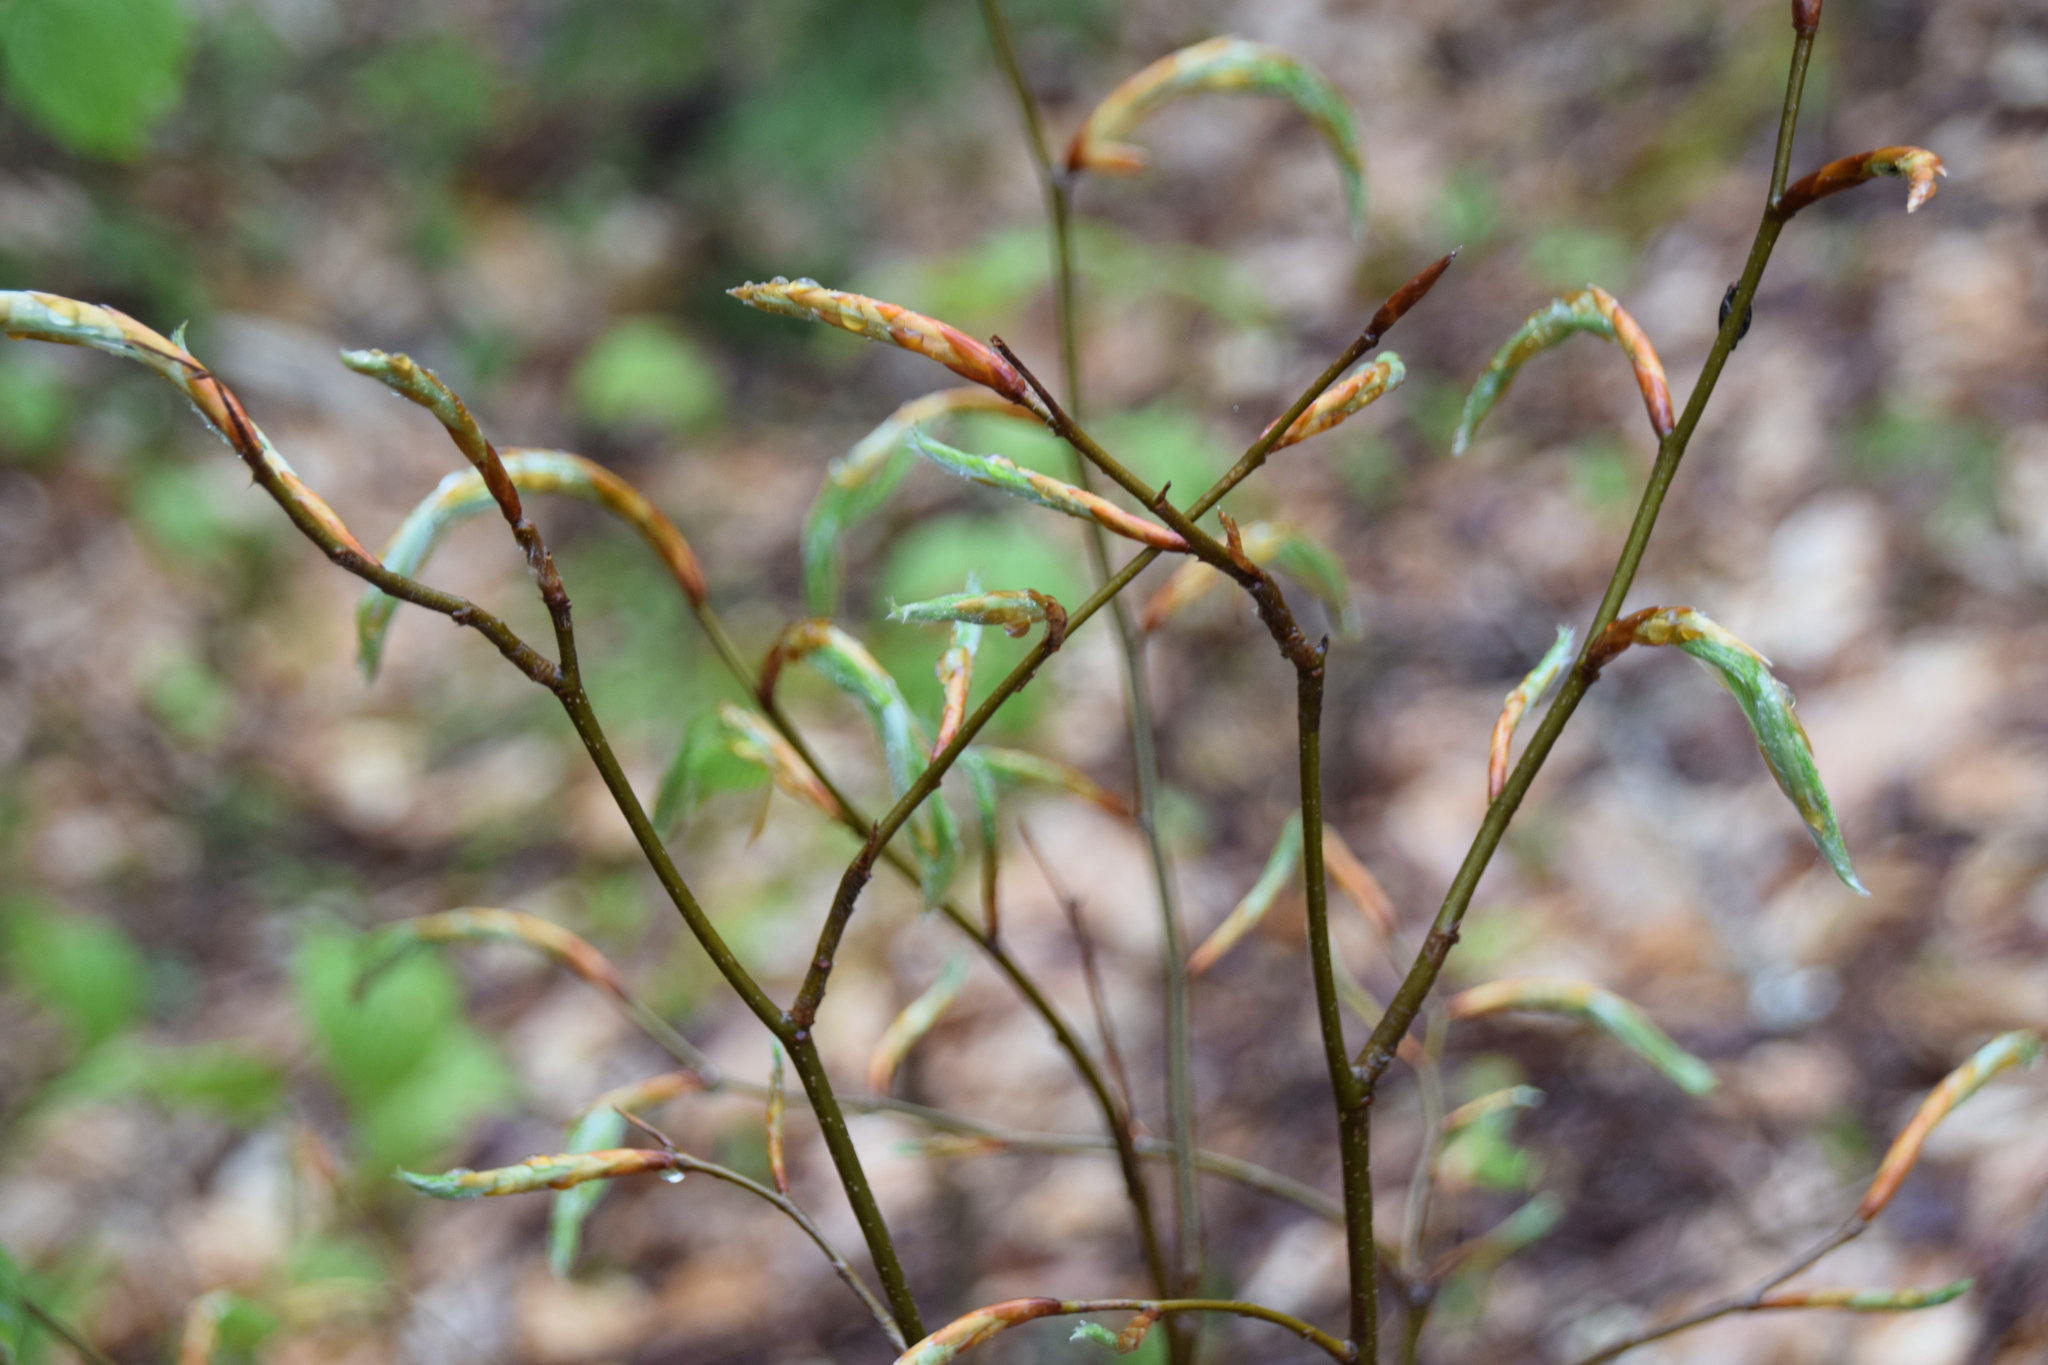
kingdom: Plantae
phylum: Tracheophyta
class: Magnoliopsida
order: Fagales
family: Fagaceae
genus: Fagus
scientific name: Fagus grandifolia
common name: American beech
